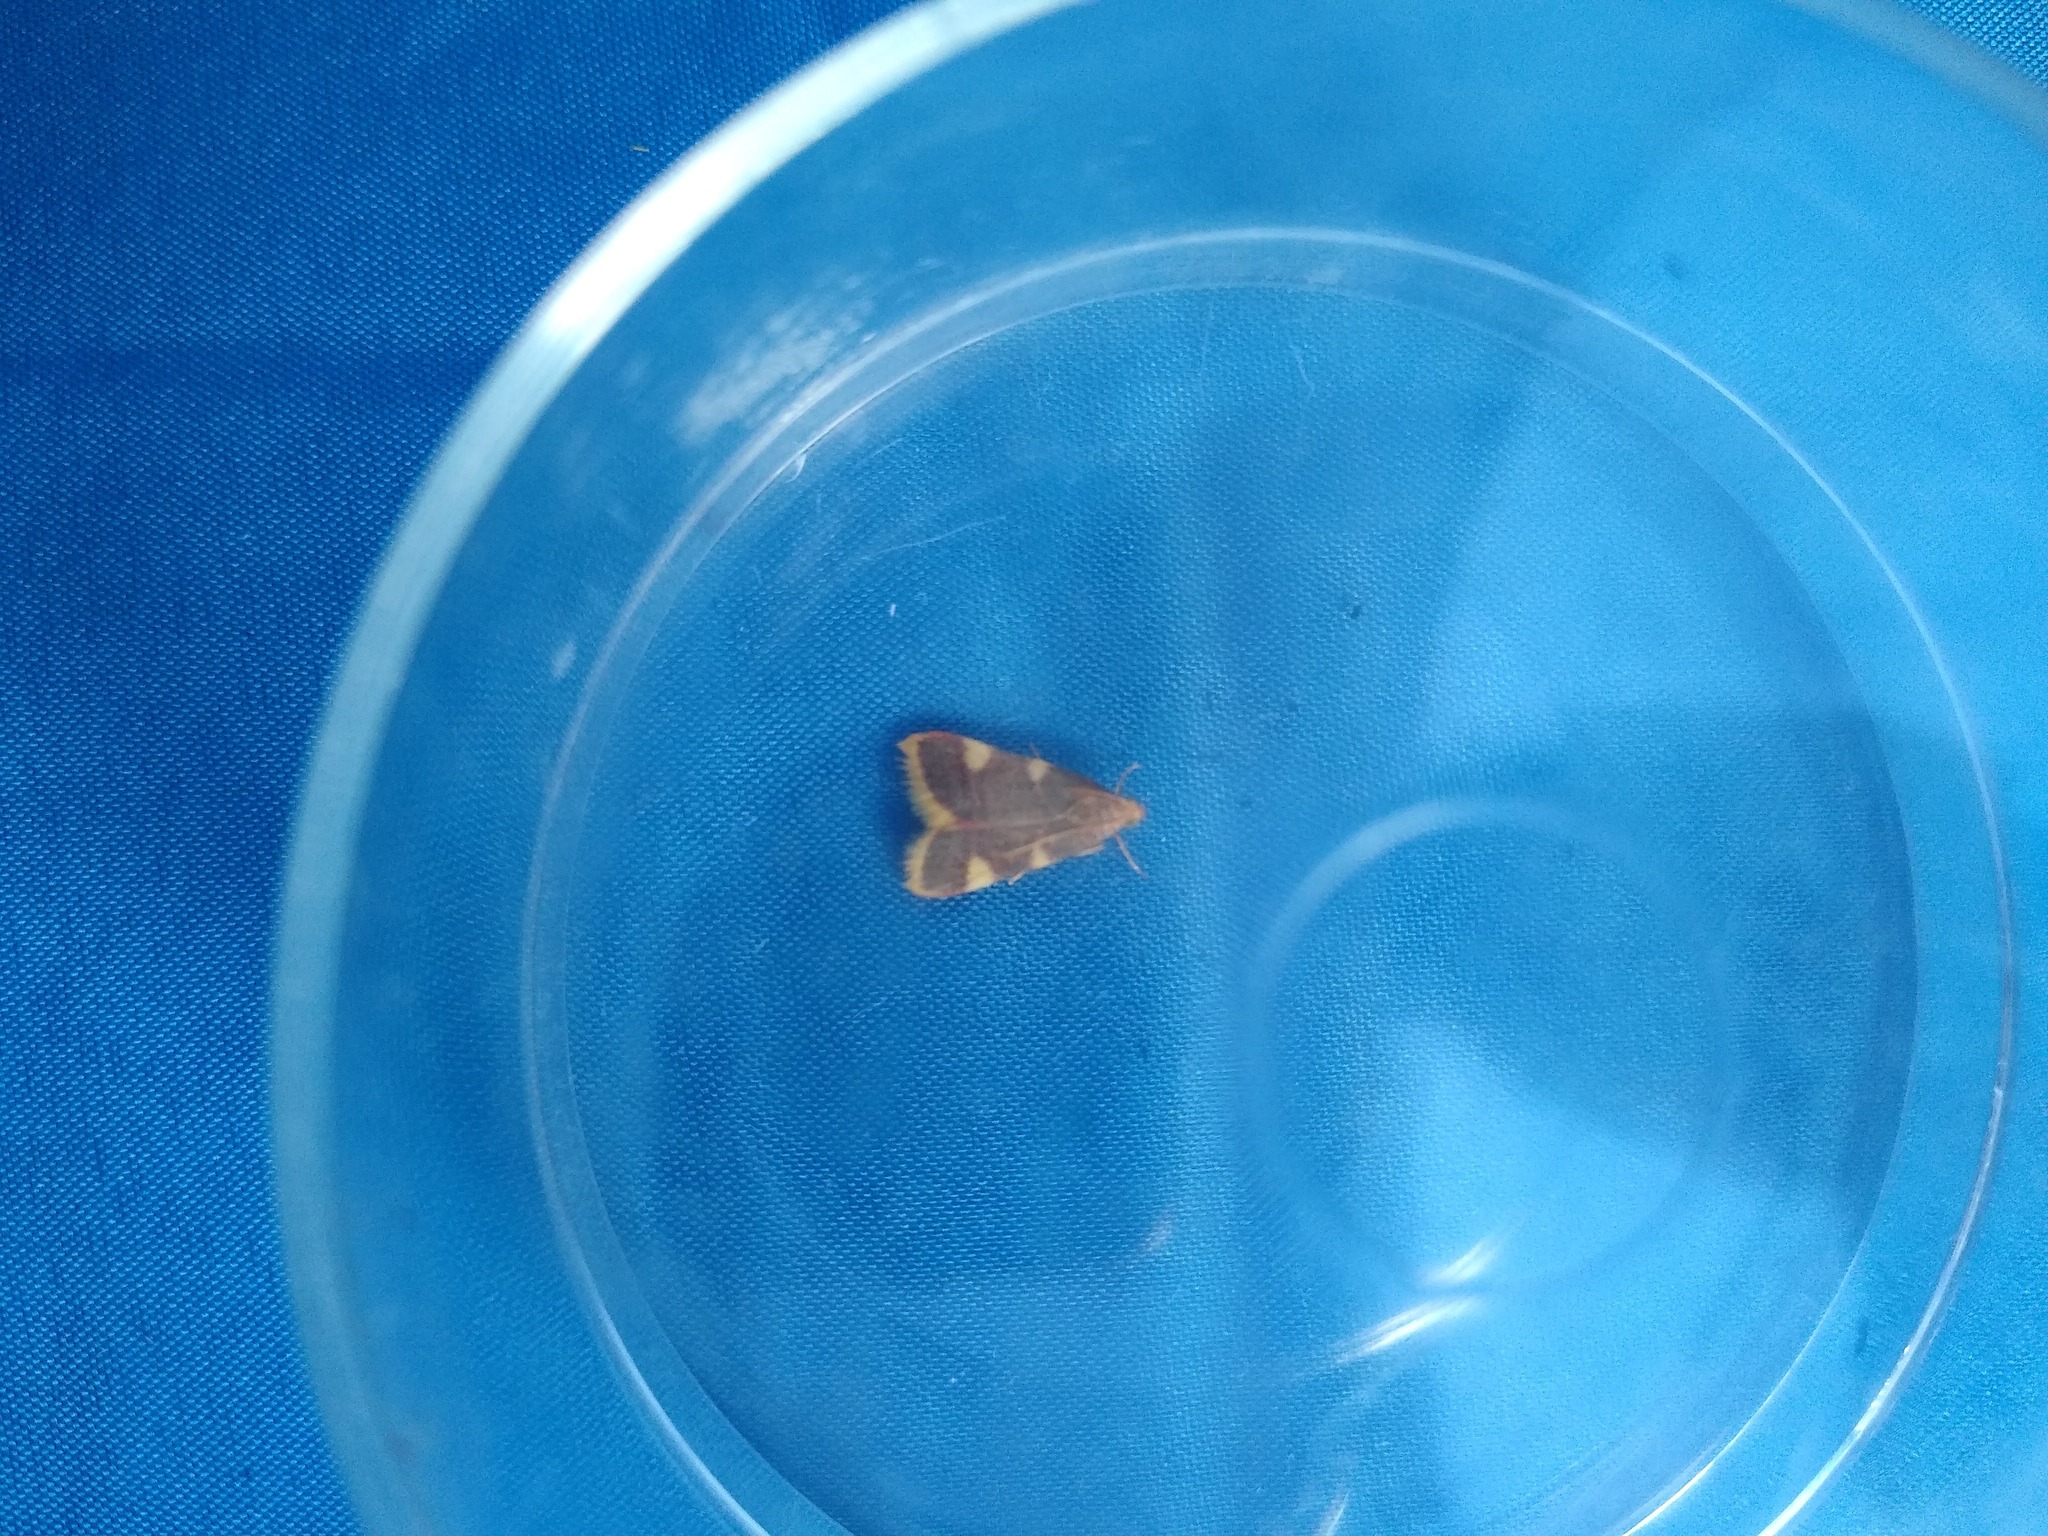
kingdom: Animalia
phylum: Arthropoda
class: Insecta
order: Lepidoptera
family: Pyralidae
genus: Hypsopygia
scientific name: Hypsopygia costalis
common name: Gold triangle
